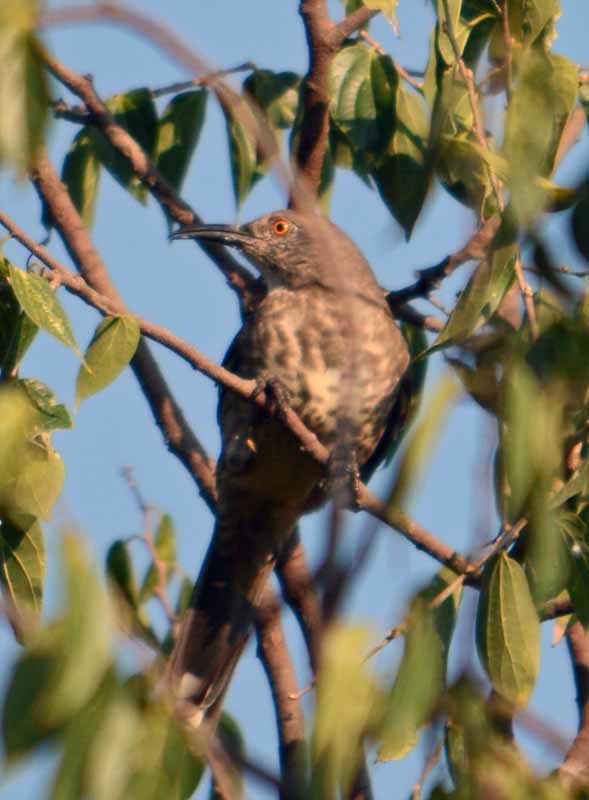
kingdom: Animalia
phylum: Chordata
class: Aves
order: Passeriformes
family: Mimidae
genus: Toxostoma
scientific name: Toxostoma curvirostre
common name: Curve-billed thrasher
